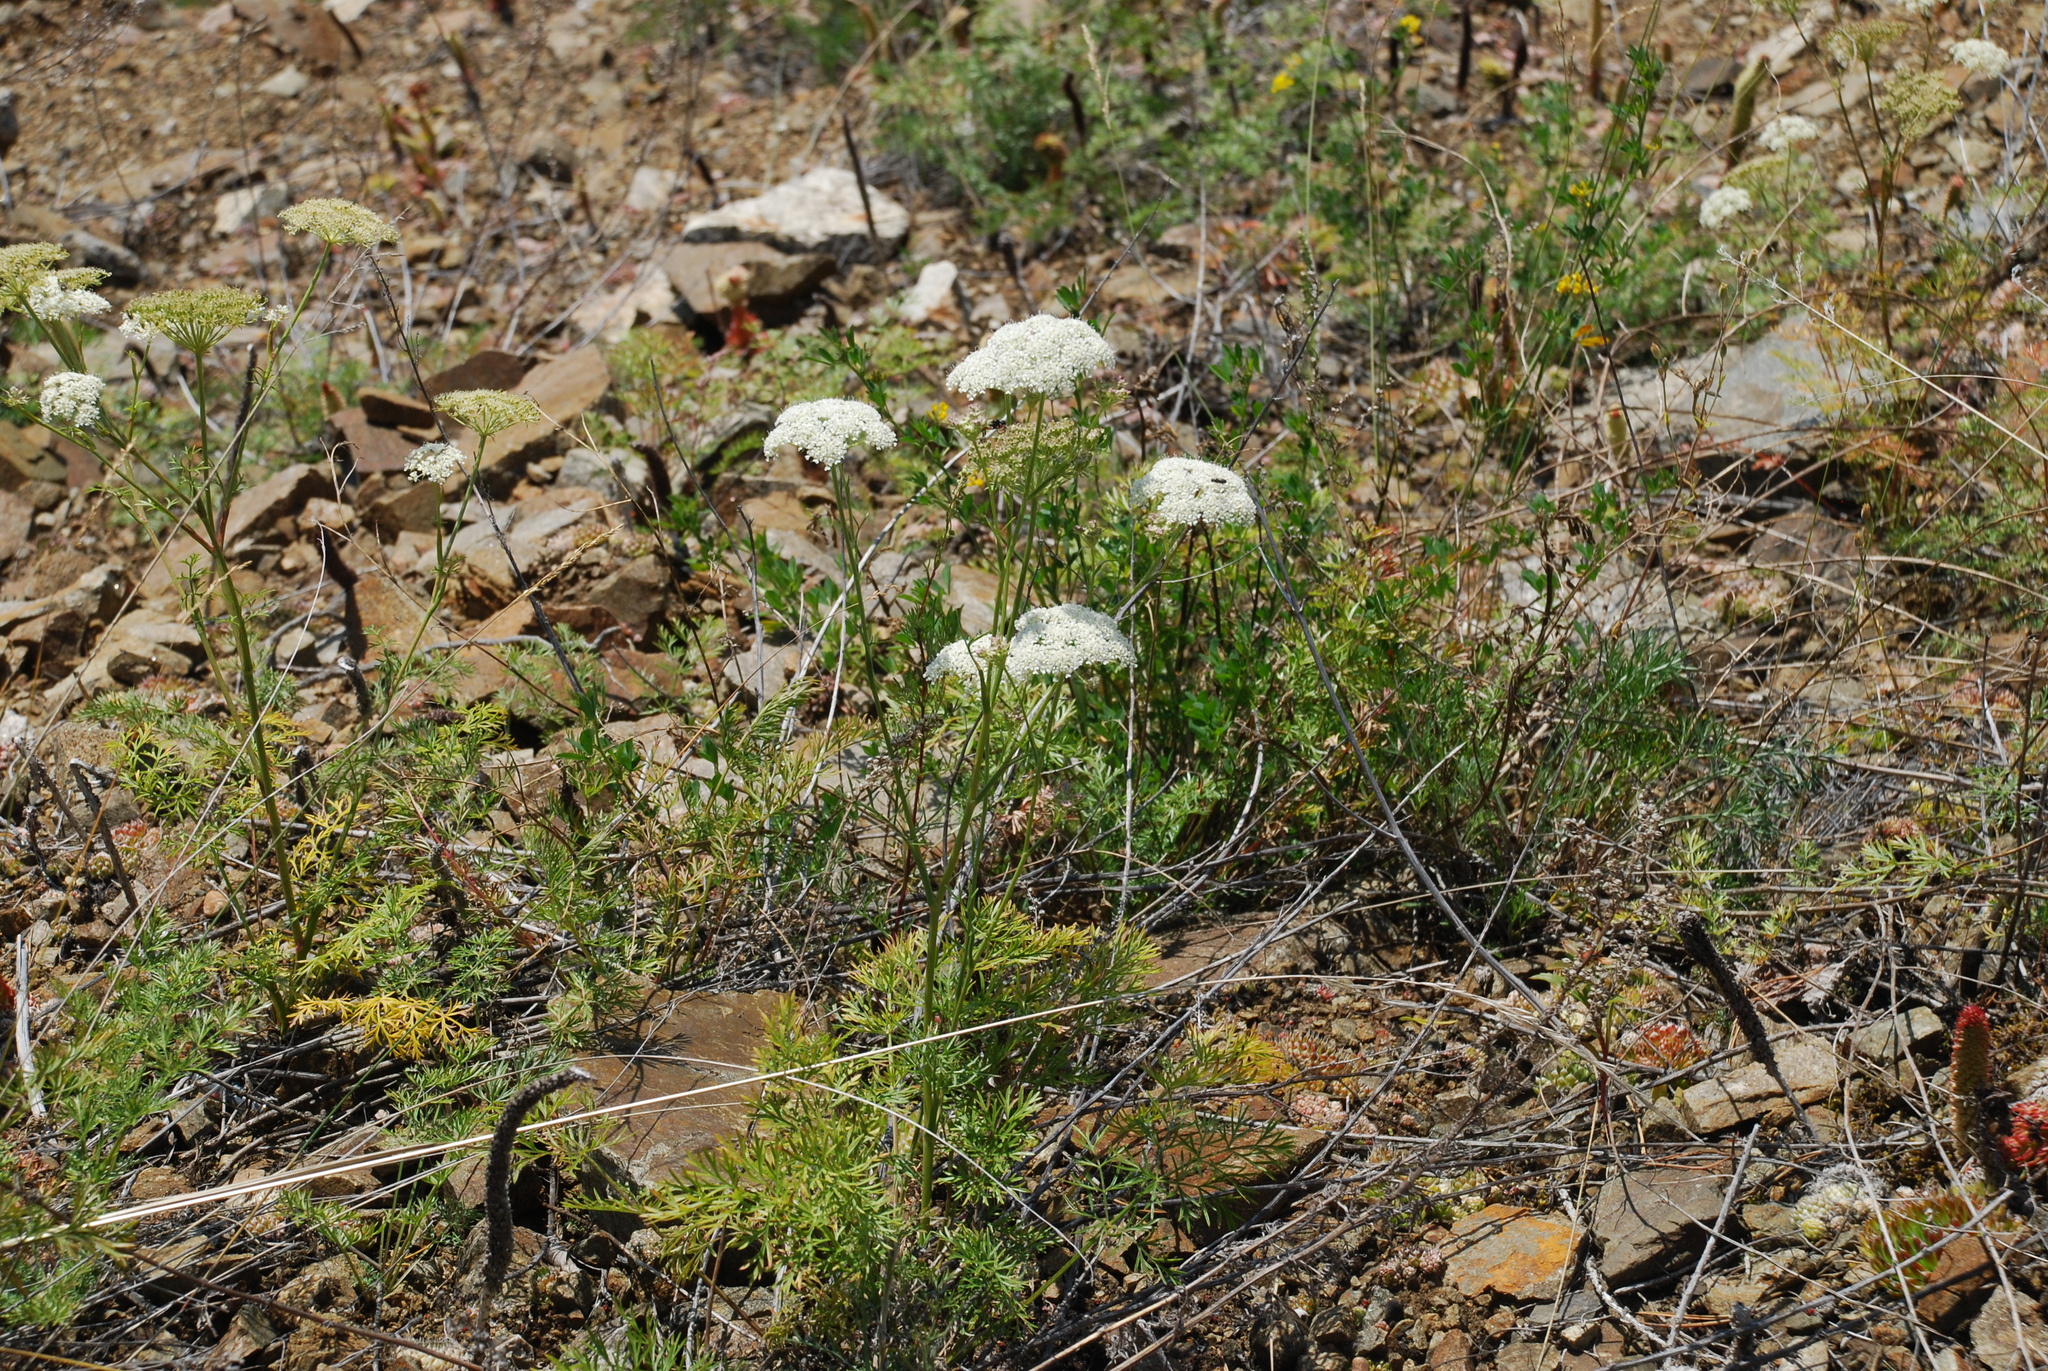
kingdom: Plantae
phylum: Tracheophyta
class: Magnoliopsida
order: Apiales
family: Apiaceae
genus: Kitagawia
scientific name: Kitagawia baicalensis
